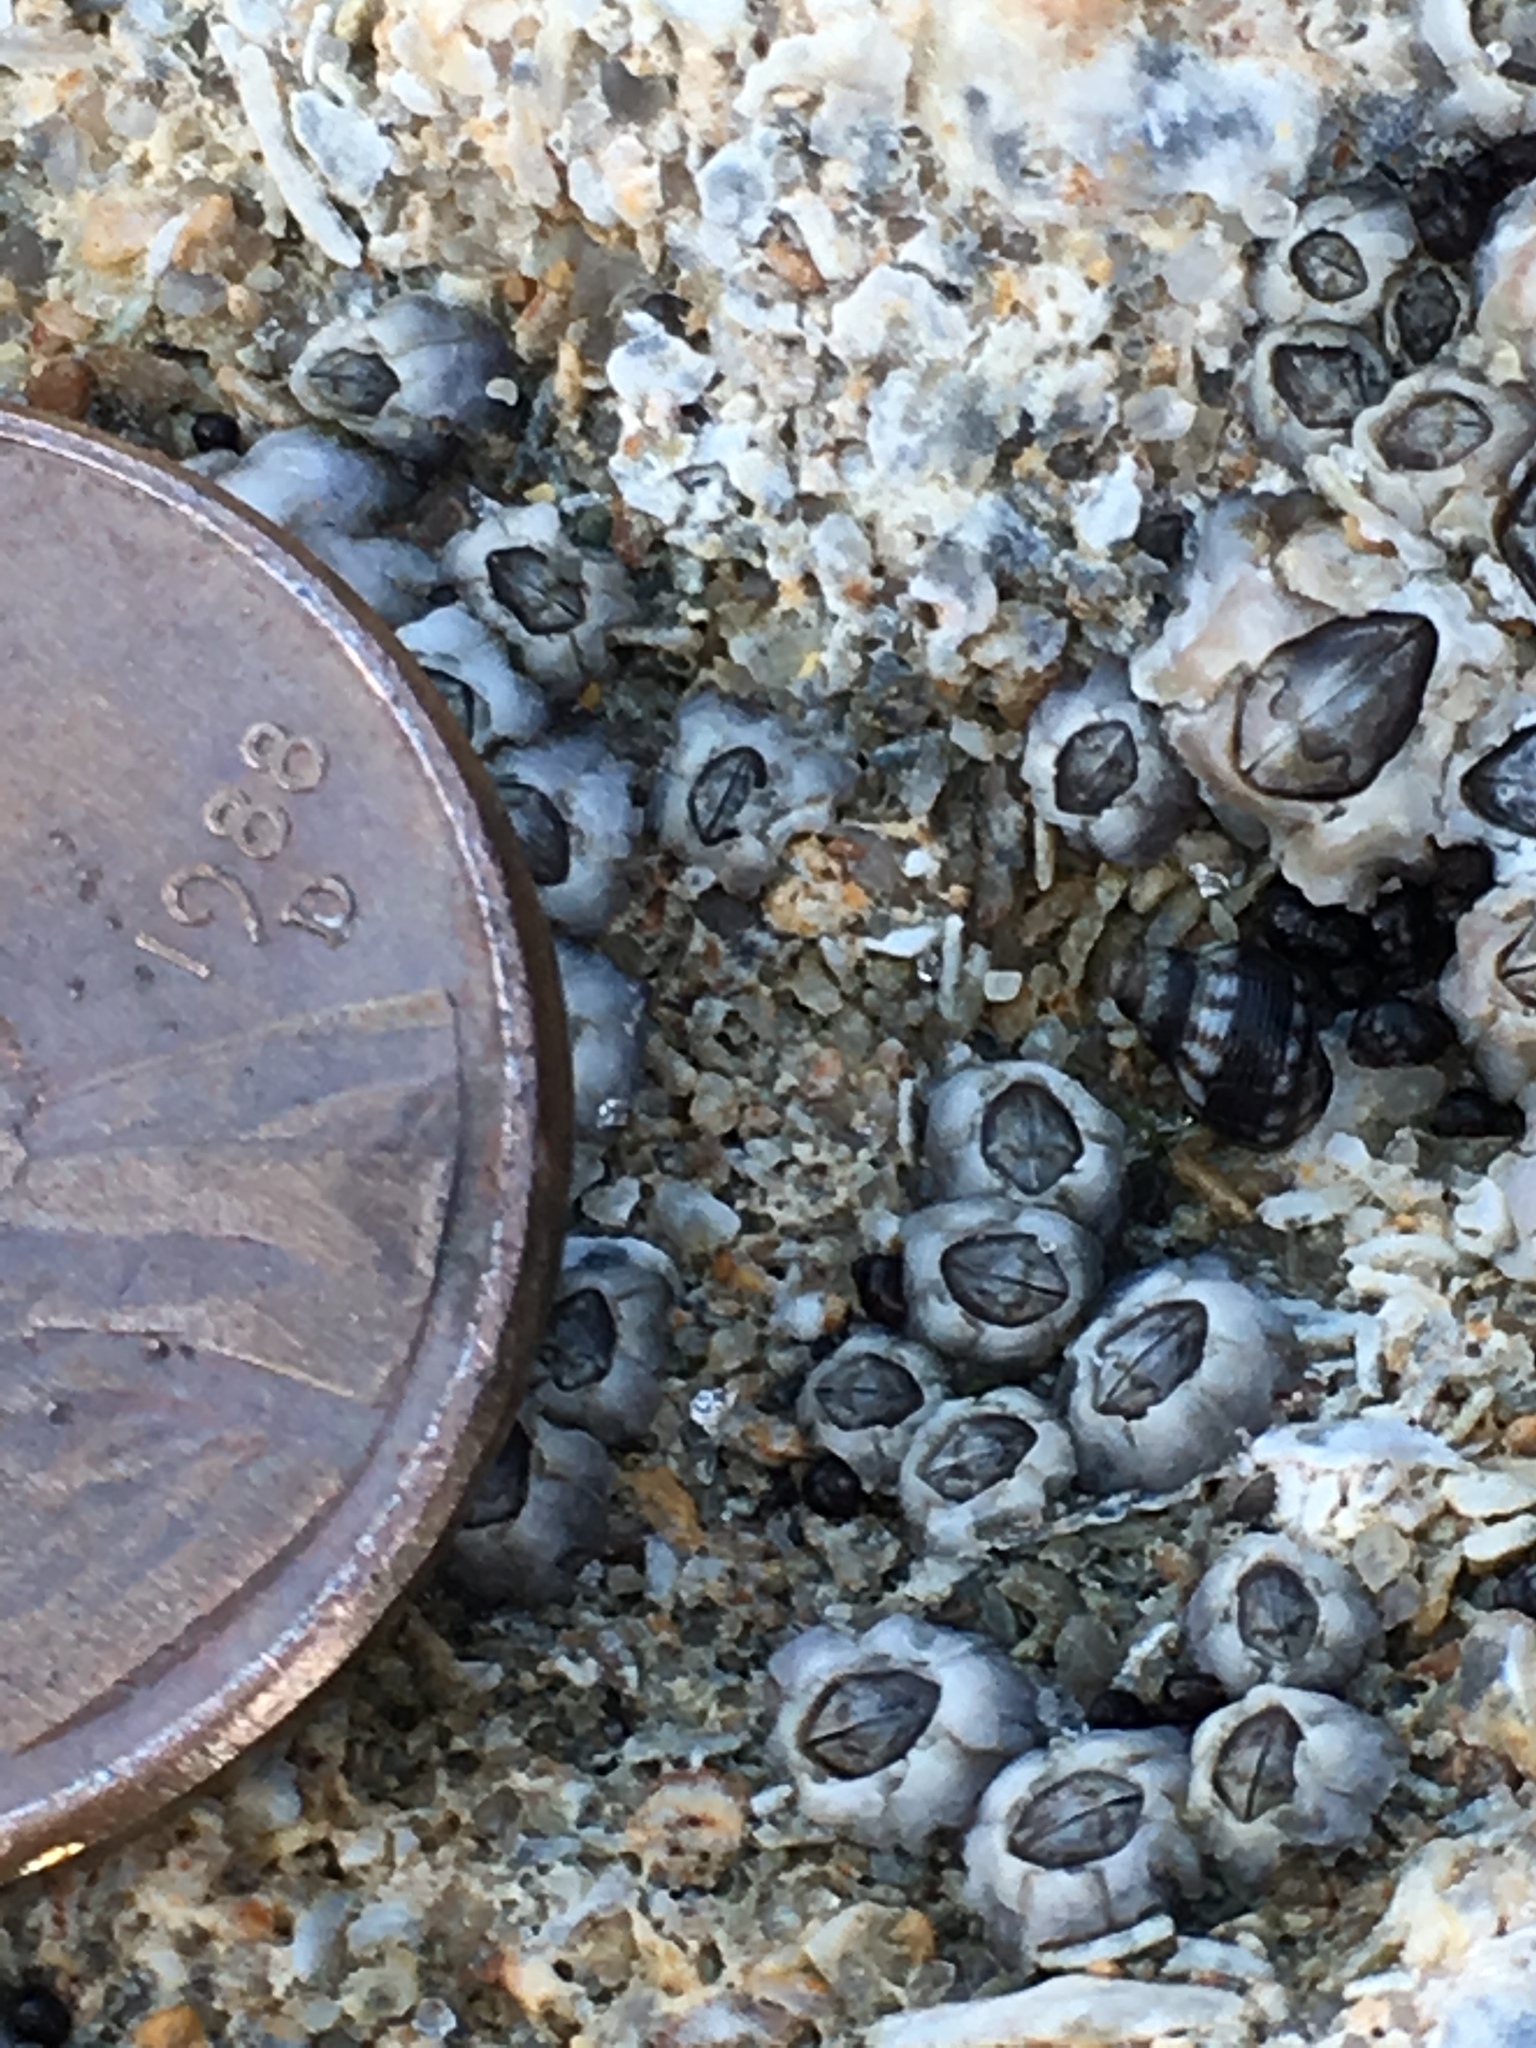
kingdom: Animalia
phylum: Arthropoda
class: Maxillopoda
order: Sessilia
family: Chthamalidae
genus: Chthamalus
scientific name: Chthamalus fragilis
